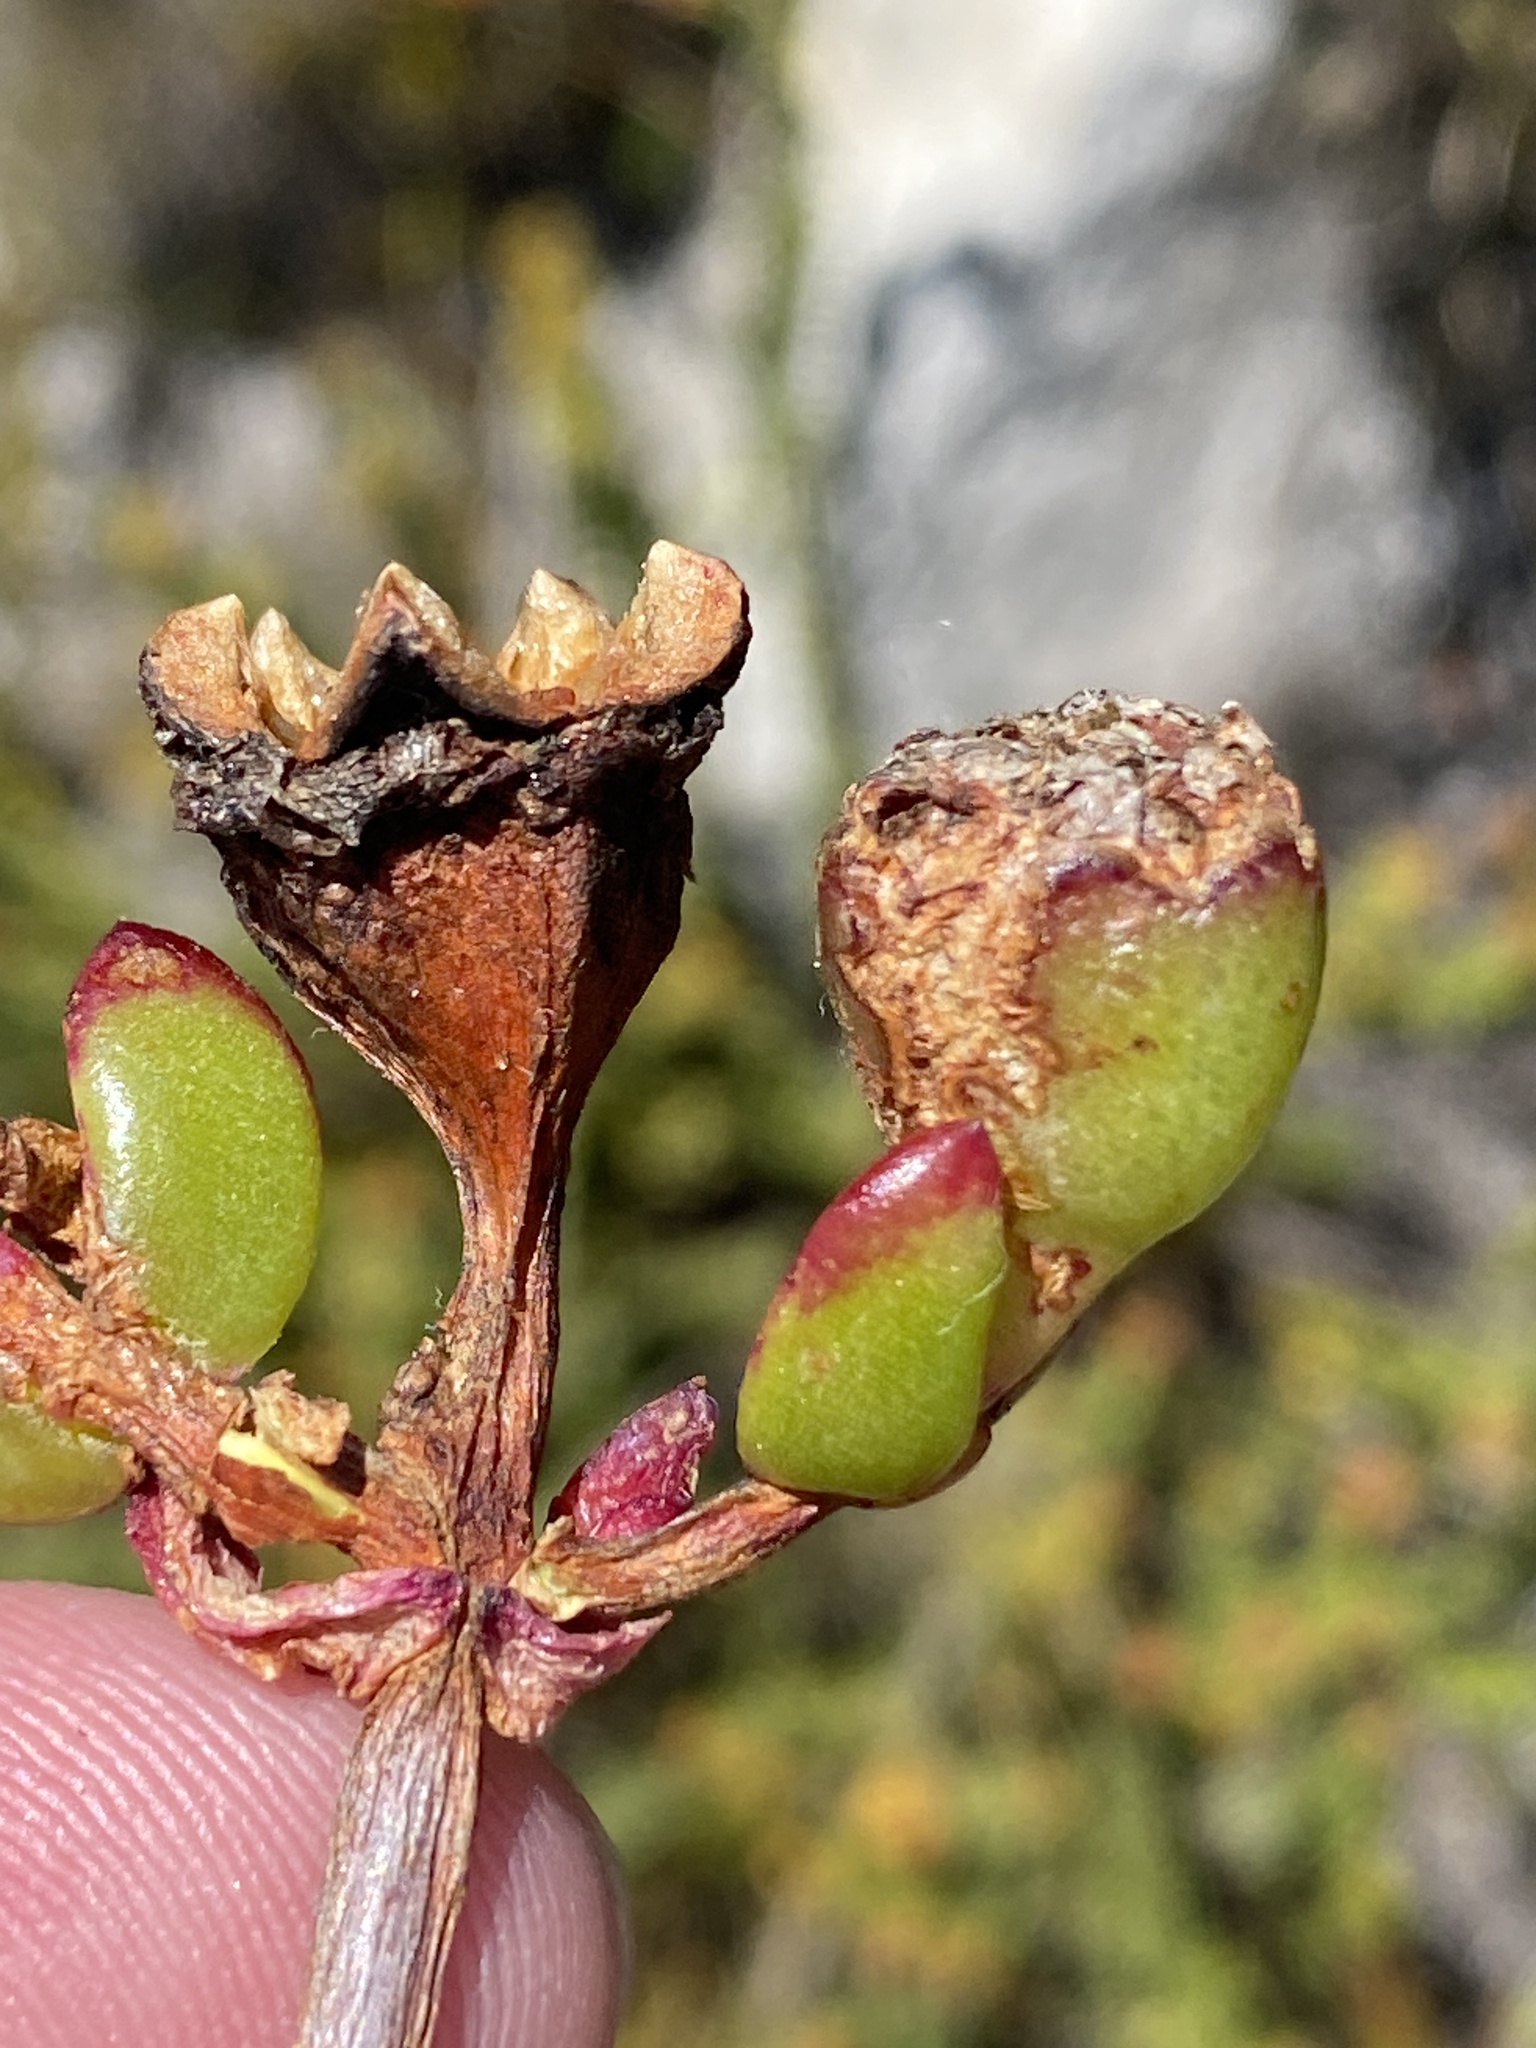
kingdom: Plantae
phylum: Tracheophyta
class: Magnoliopsida
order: Caryophyllales
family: Aizoaceae
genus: Erepsia
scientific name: Erepsia inclaudens
